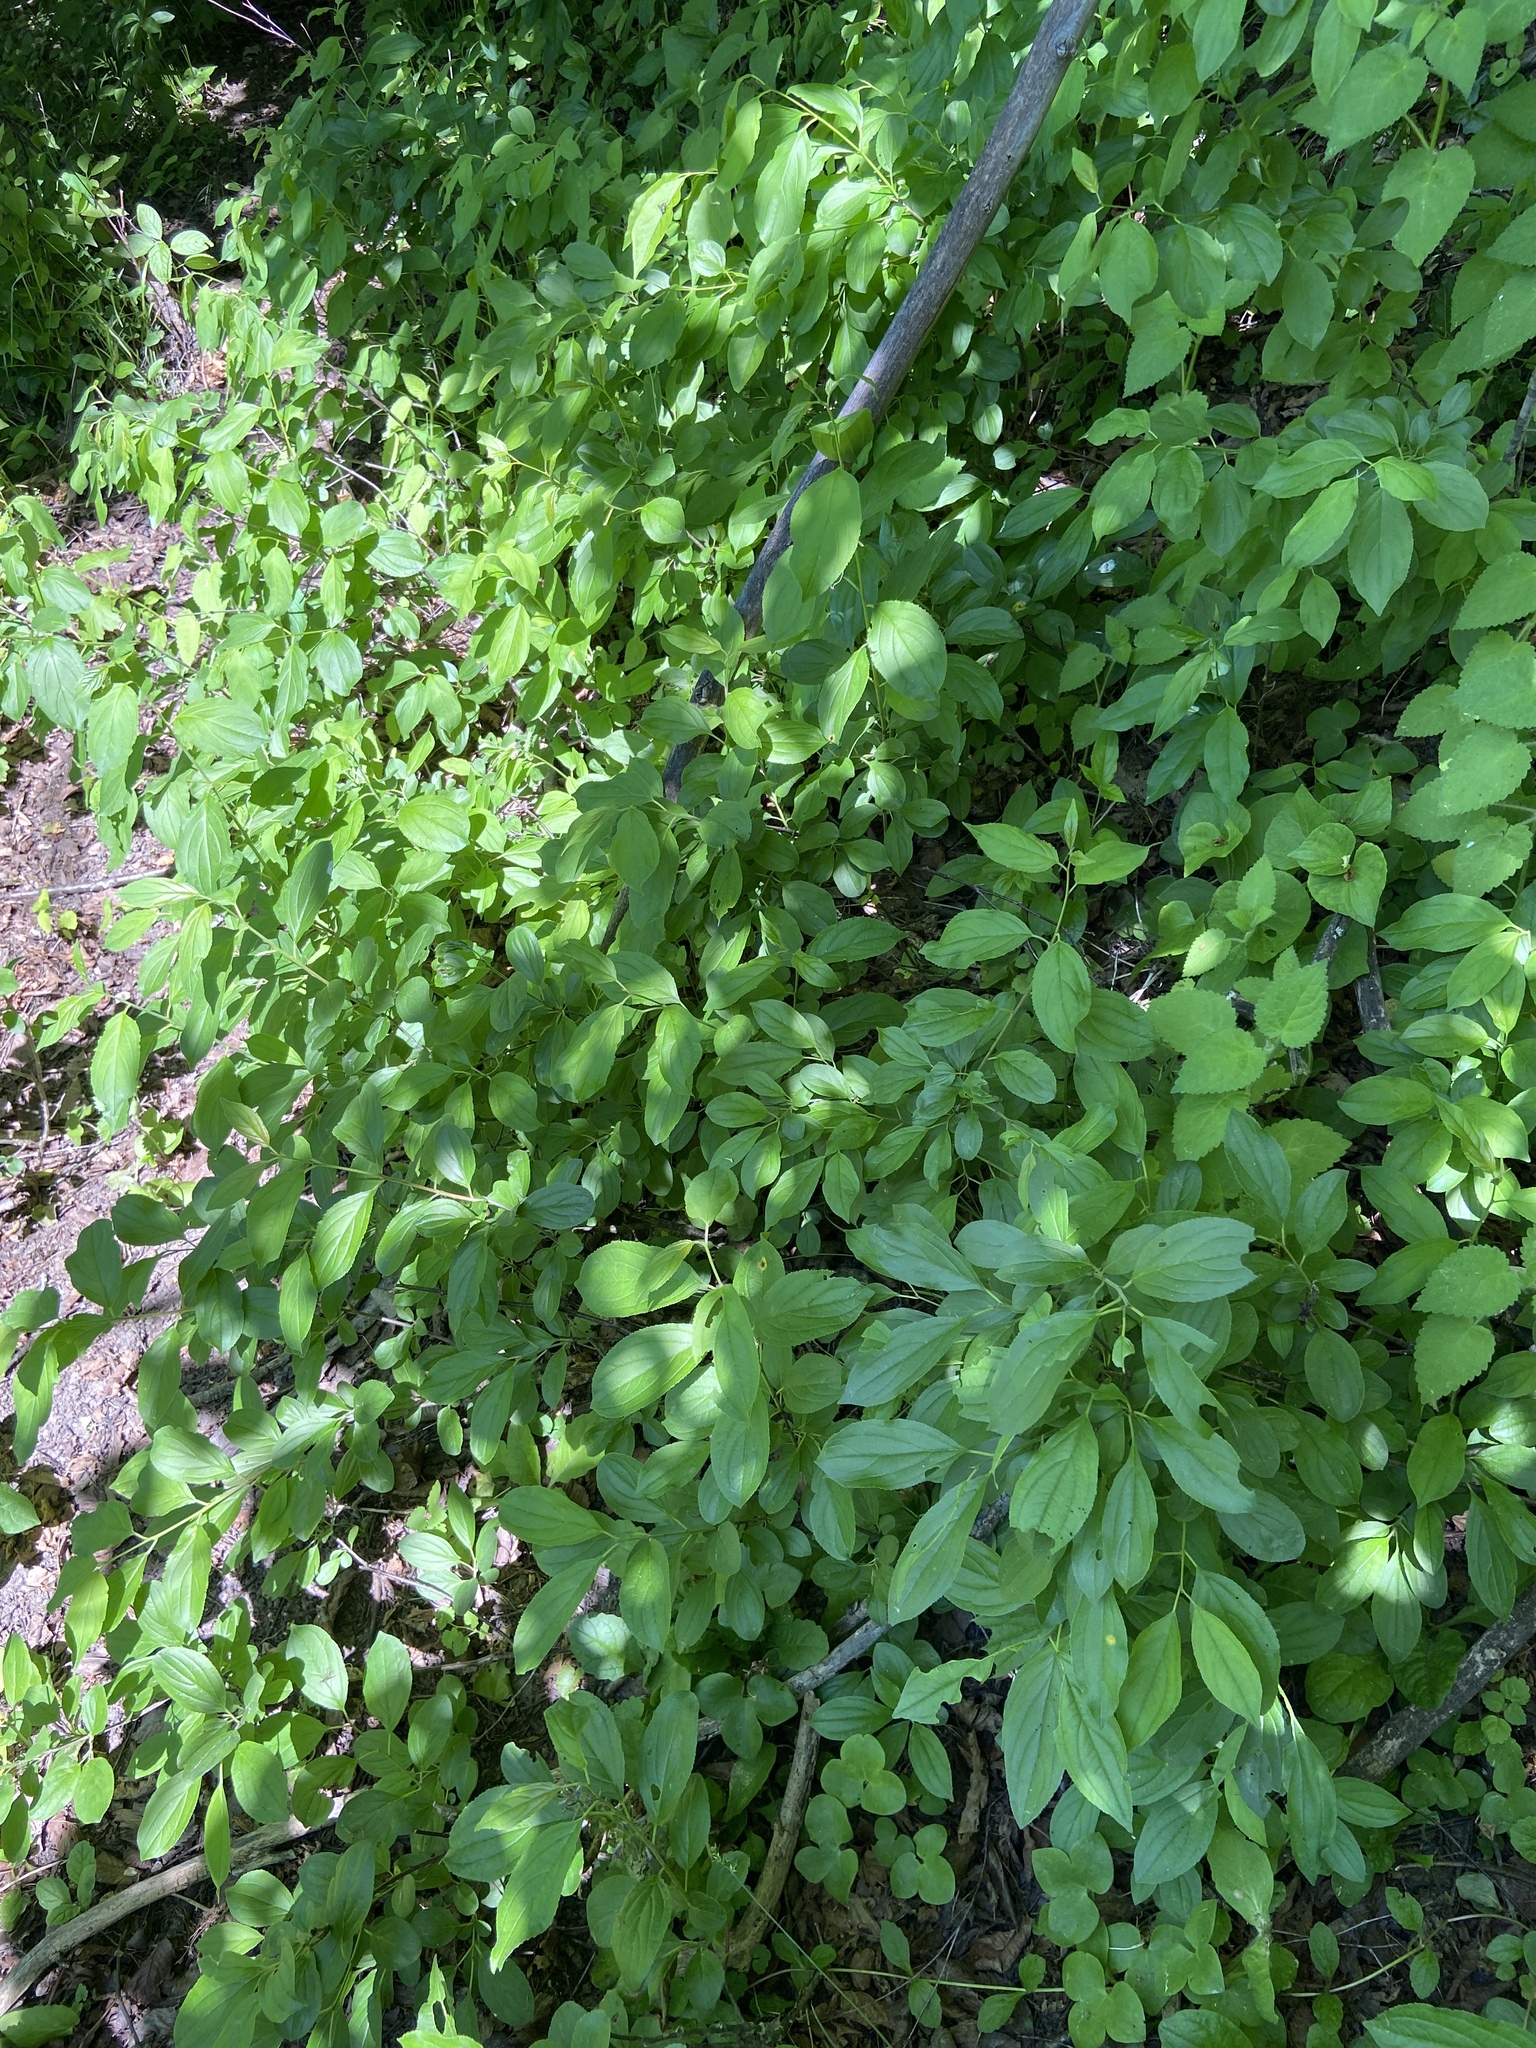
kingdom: Plantae
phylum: Tracheophyta
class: Magnoliopsida
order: Rosales
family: Rhamnaceae
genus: Rhamnus
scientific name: Rhamnus cathartica
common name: Common buckthorn
